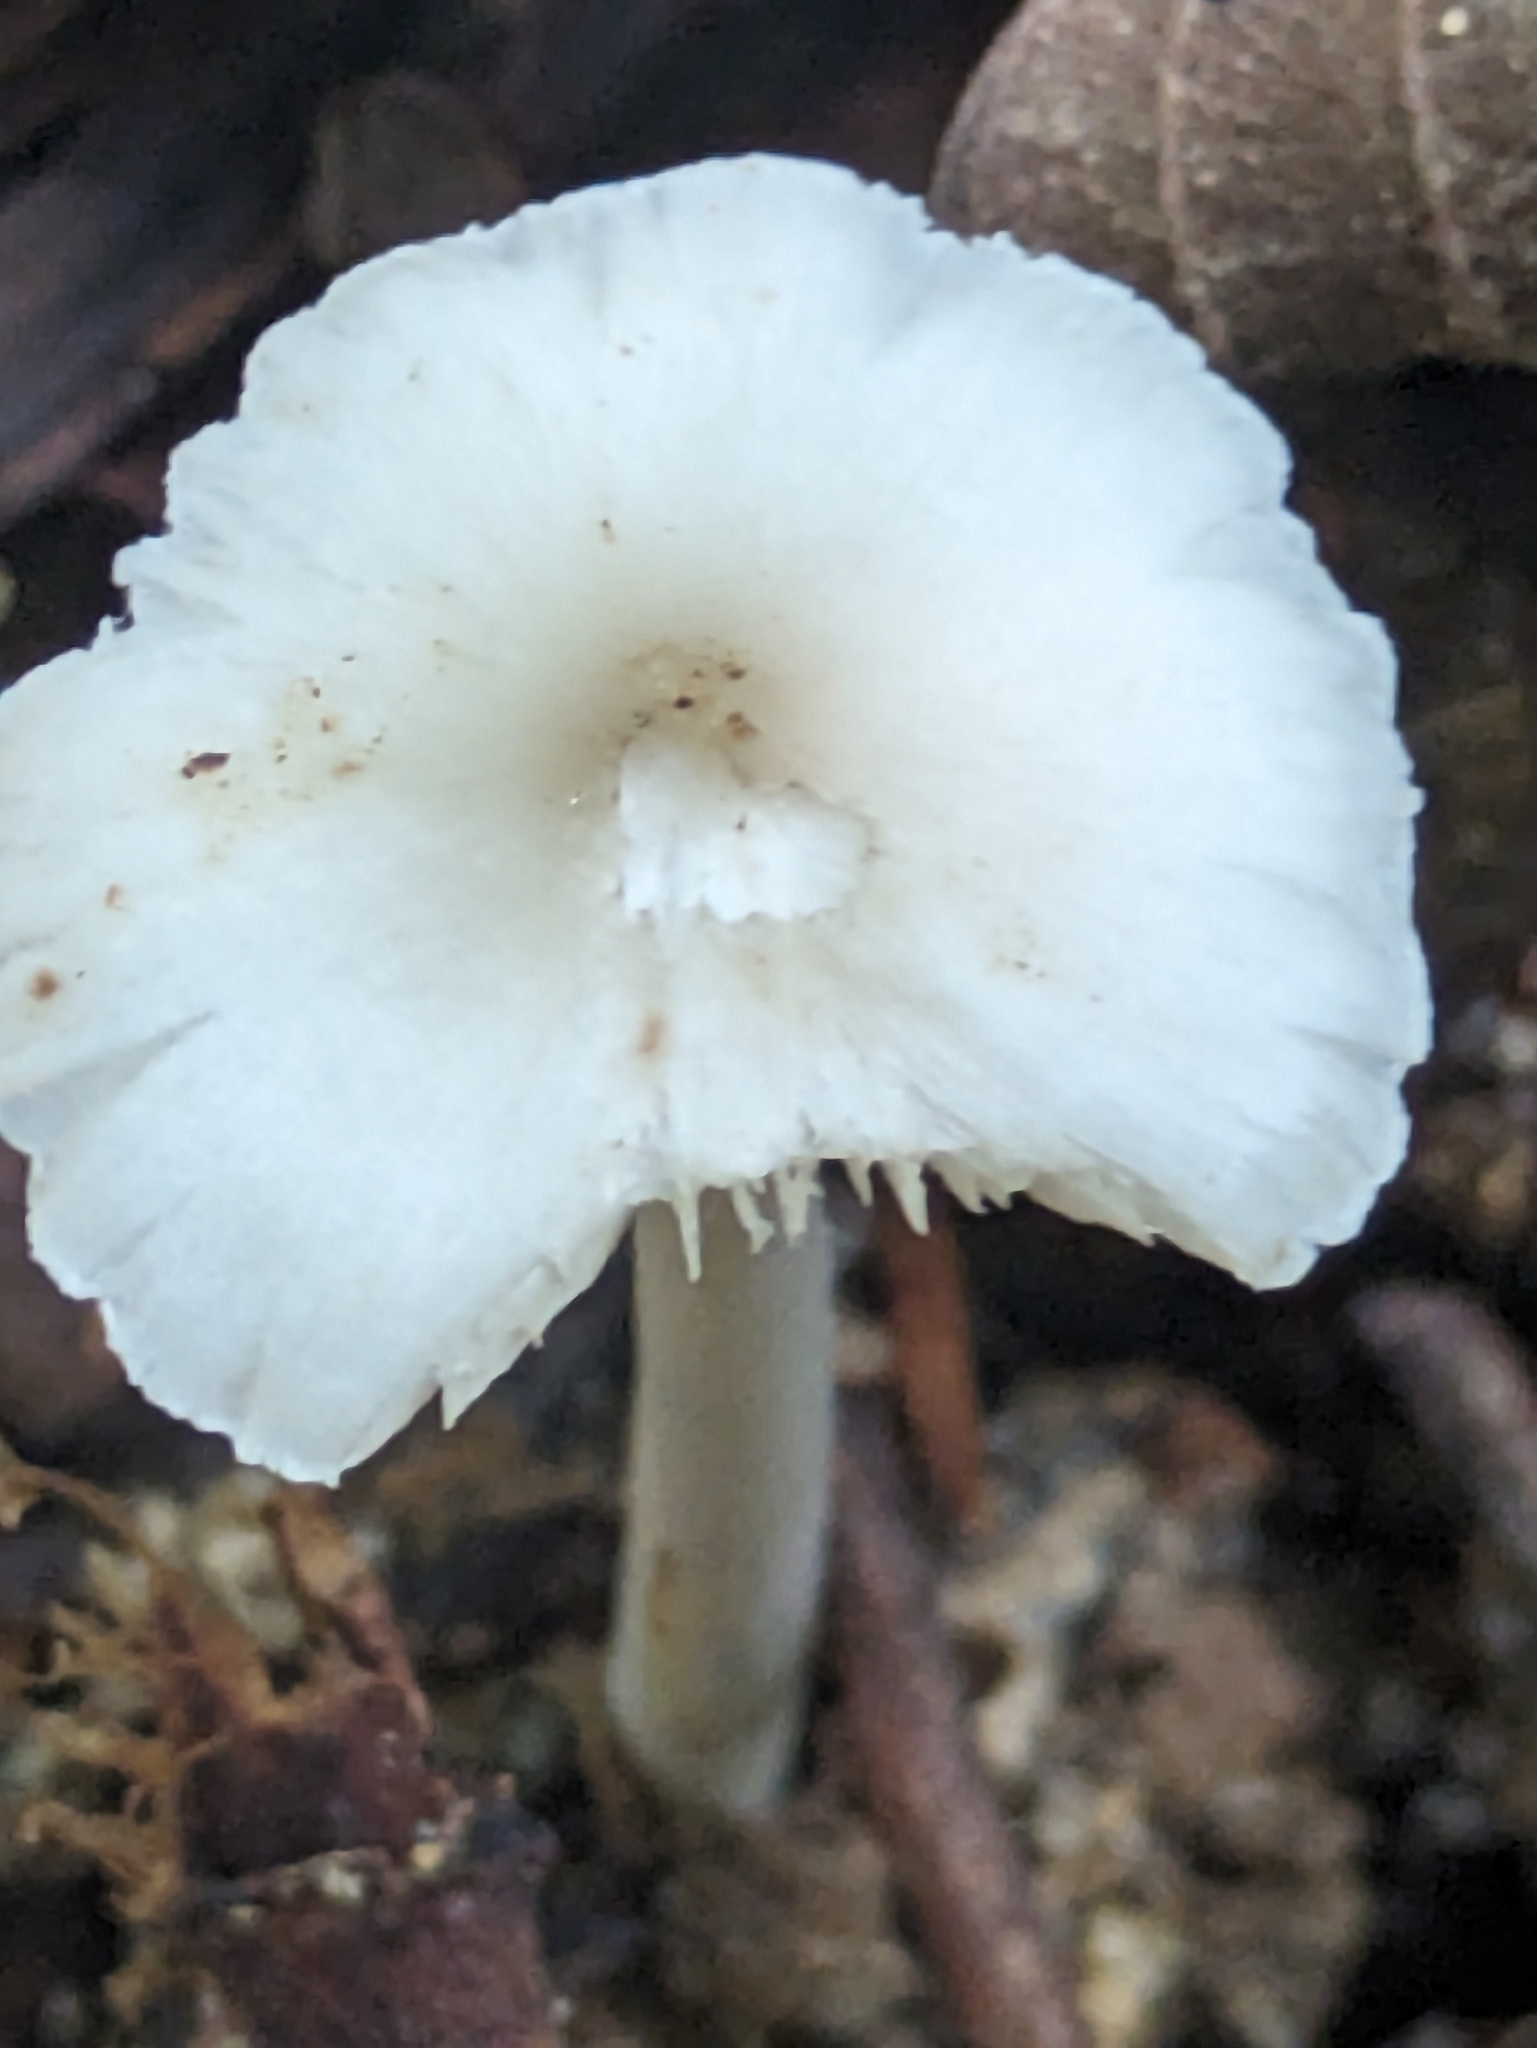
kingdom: Fungi
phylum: Basidiomycota
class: Agaricomycetes
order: Agaricales
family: Lyophyllaceae
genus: Termitomyces
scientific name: Termitomyces microcarpus
